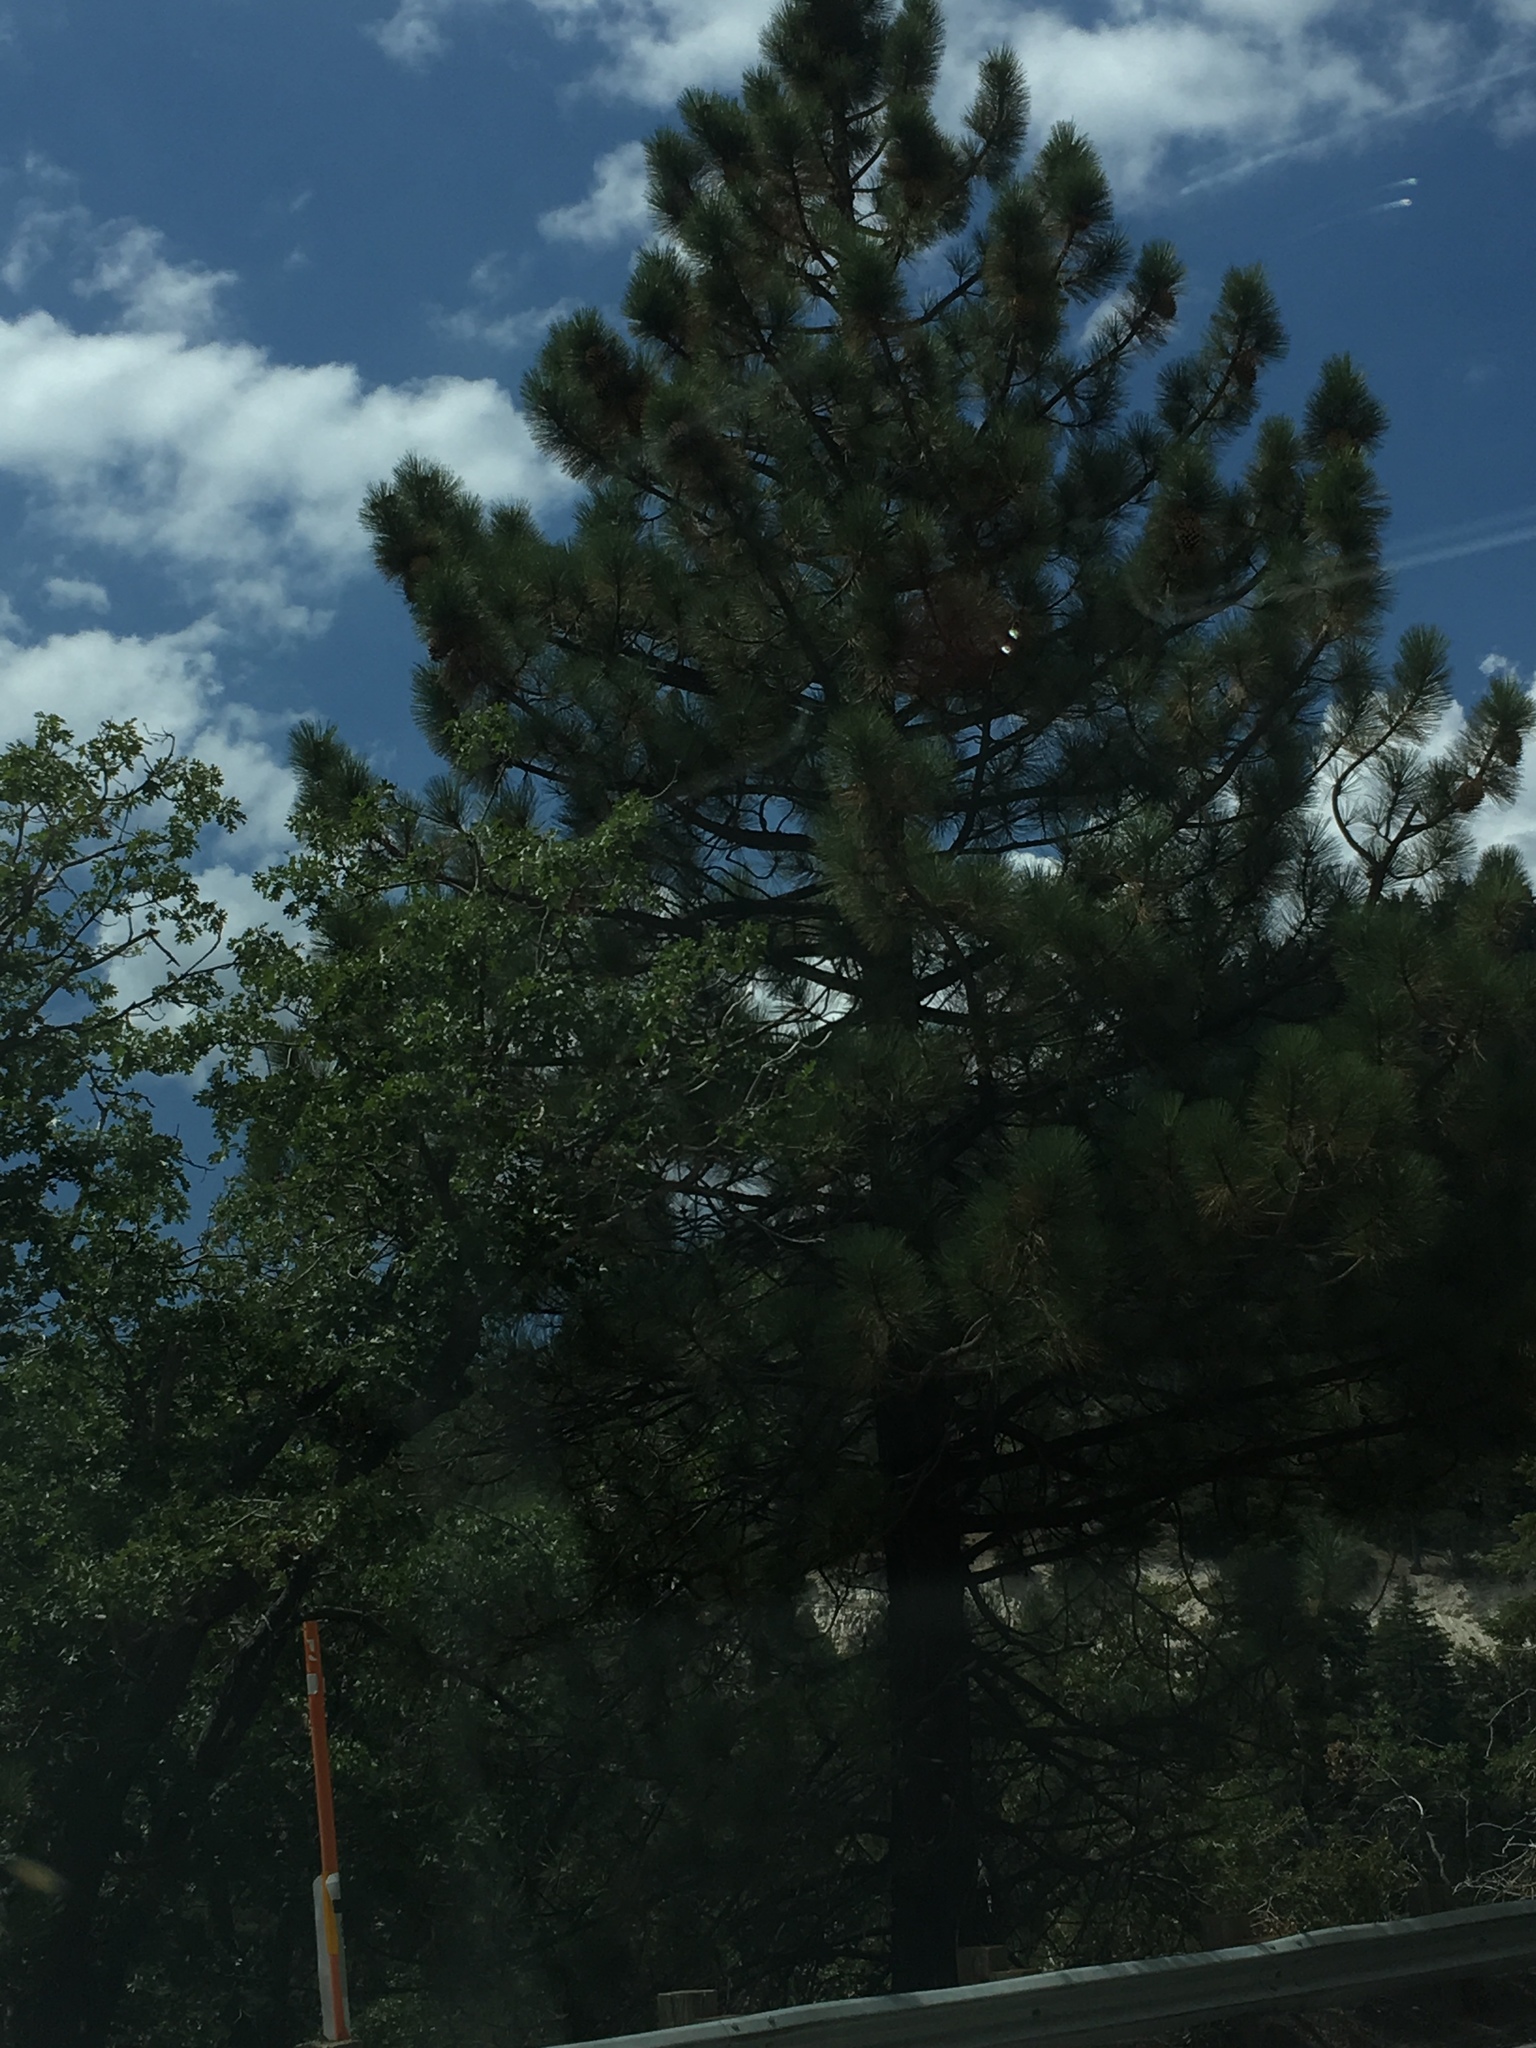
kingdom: Plantae
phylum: Tracheophyta
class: Pinopsida
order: Pinales
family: Pinaceae
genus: Pinus
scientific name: Pinus coulteri
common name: Coulter pine
